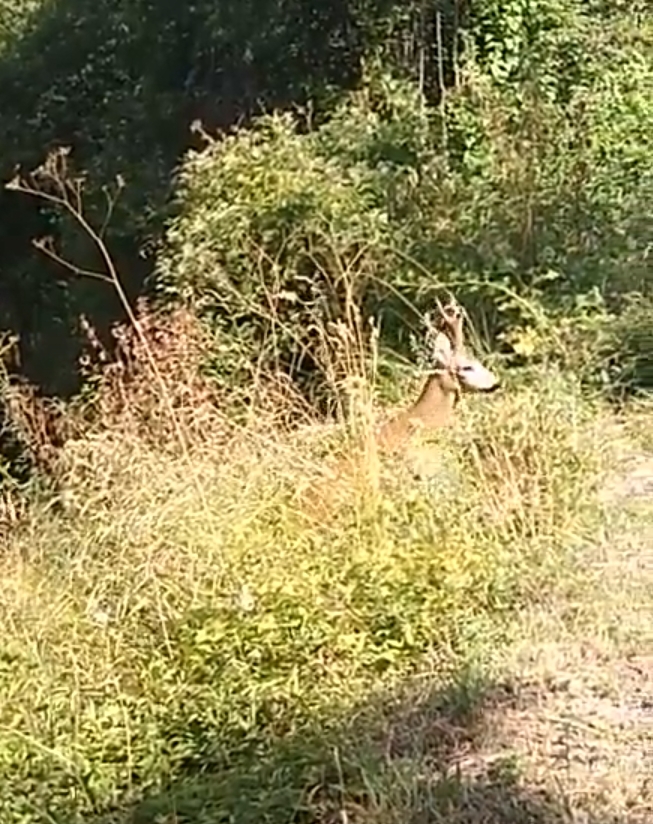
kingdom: Animalia
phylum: Chordata
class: Mammalia
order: Artiodactyla
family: Cervidae
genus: Capreolus
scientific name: Capreolus capreolus
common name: Western roe deer
